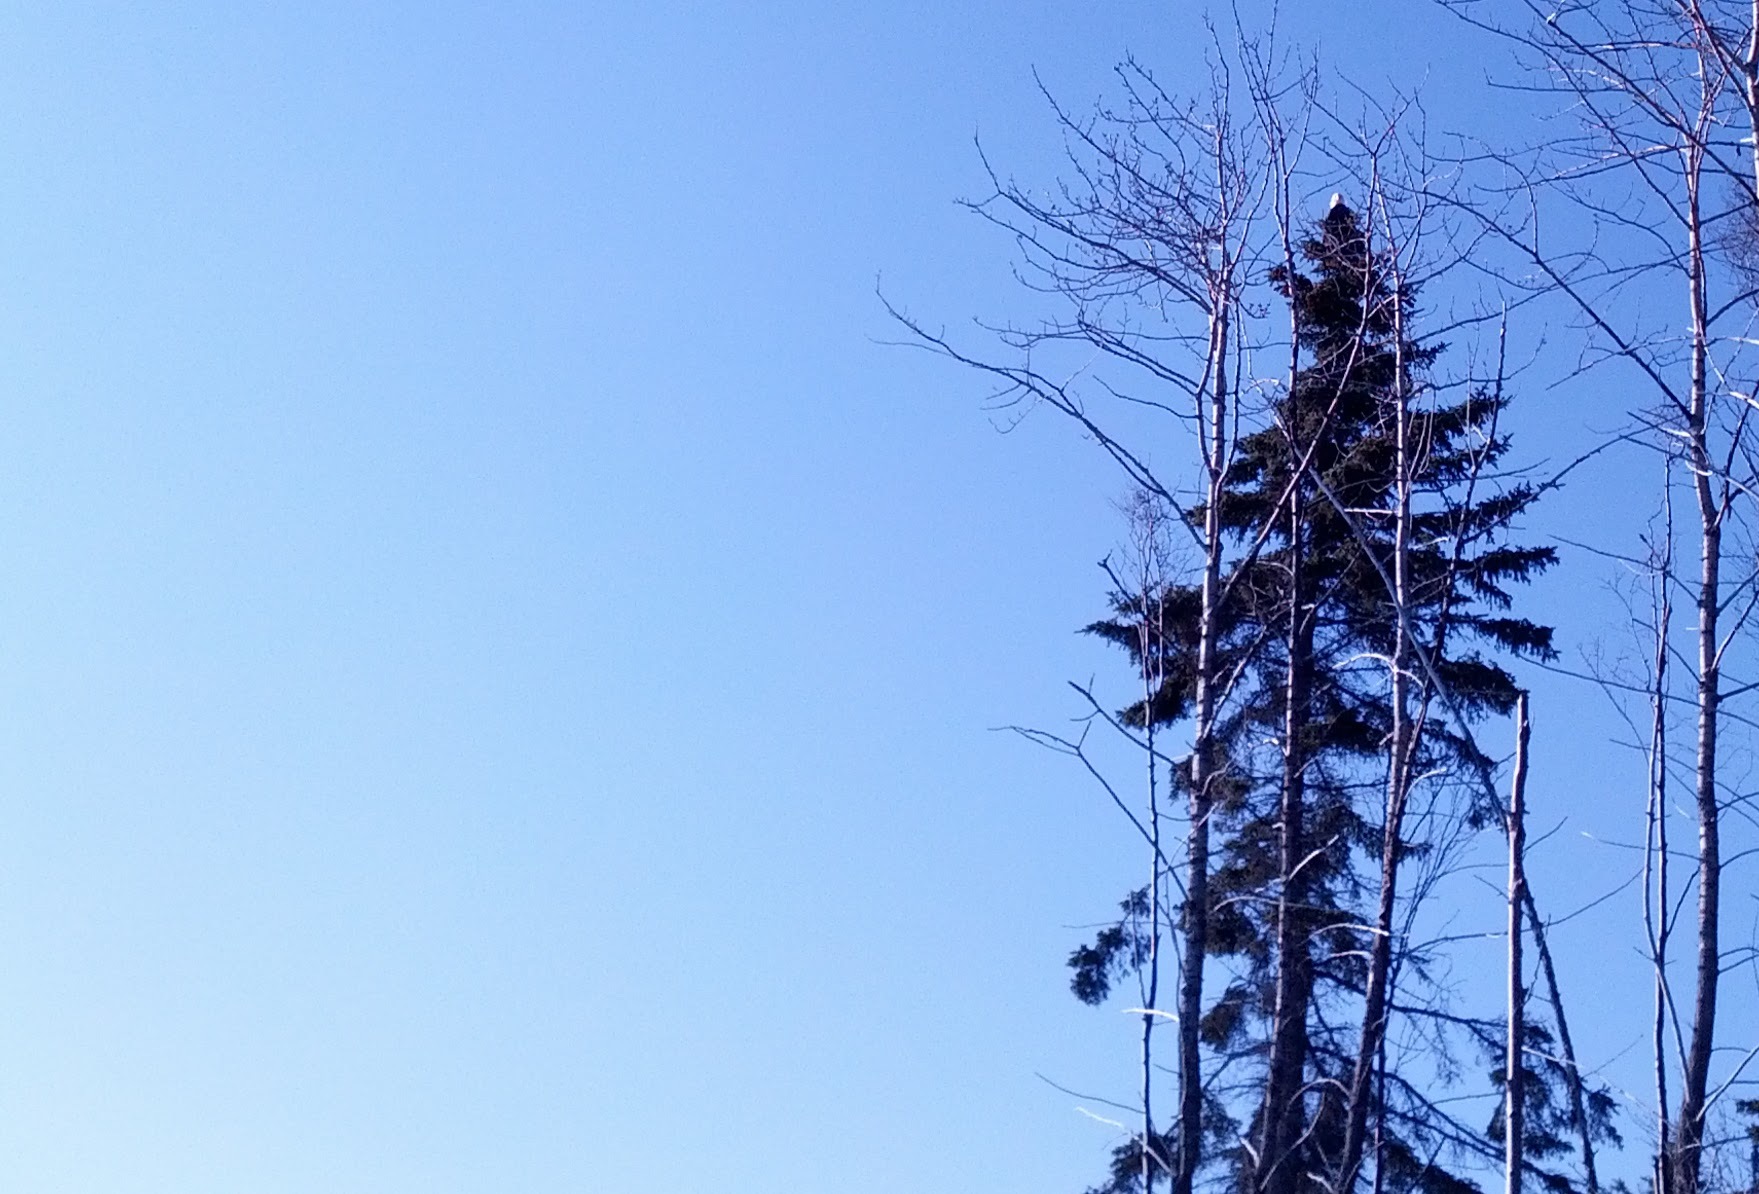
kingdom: Animalia
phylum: Chordata
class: Aves
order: Accipitriformes
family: Accipitridae
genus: Haliaeetus
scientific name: Haliaeetus leucocephalus
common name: Bald eagle
